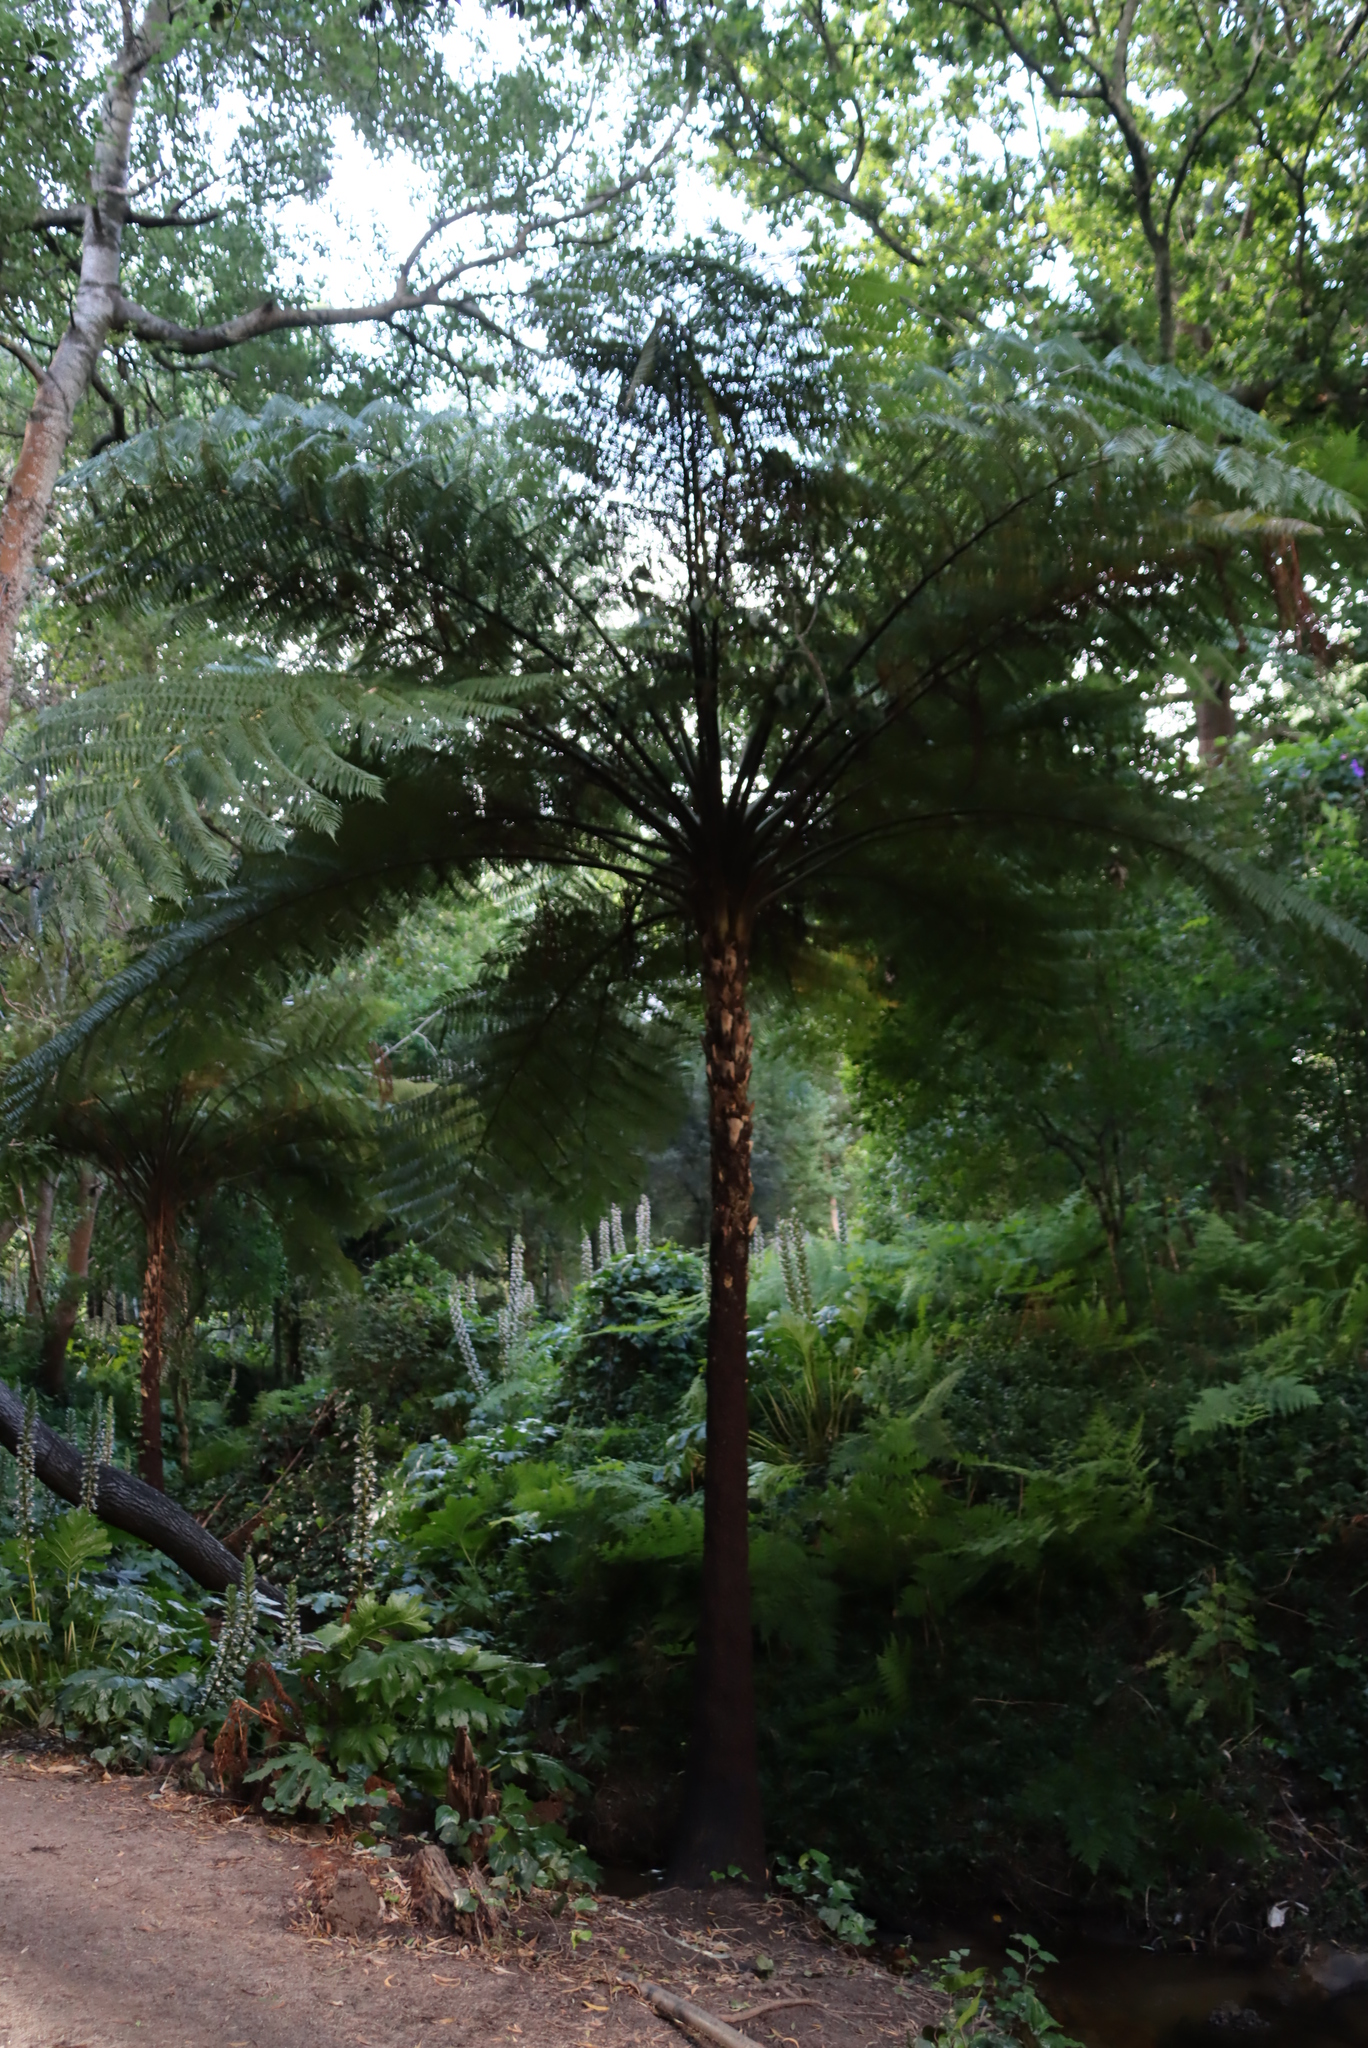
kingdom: Plantae
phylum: Tracheophyta
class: Polypodiopsida
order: Cyatheales
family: Cyatheaceae
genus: Sphaeropteris
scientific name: Sphaeropteris cooperi
